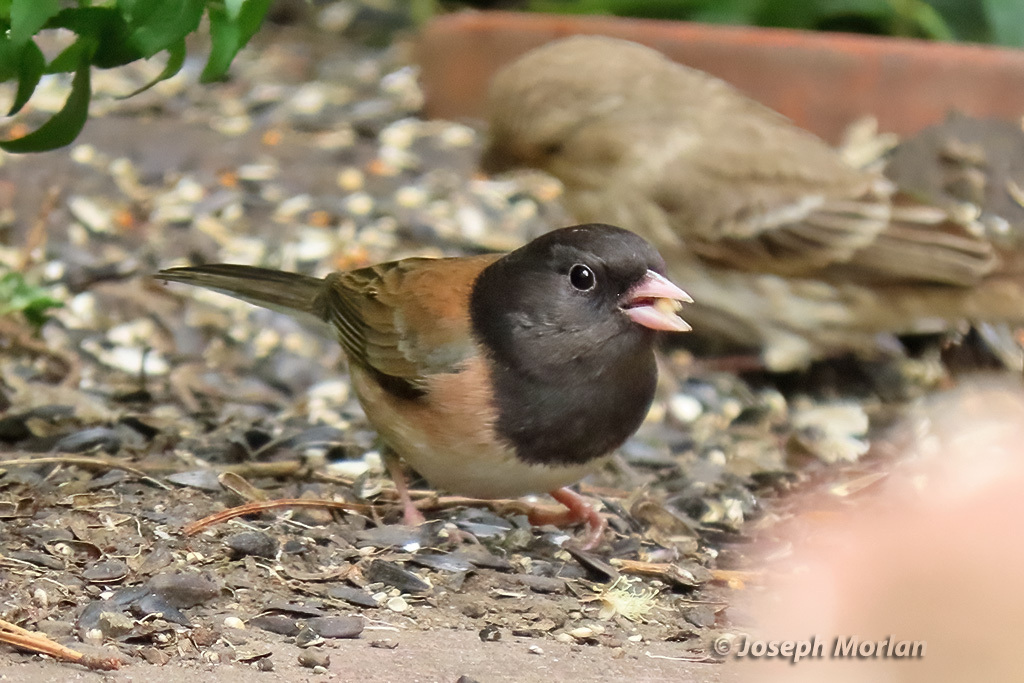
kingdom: Animalia
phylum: Chordata
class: Aves
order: Passeriformes
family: Passerellidae
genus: Junco
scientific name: Junco hyemalis
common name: Dark-eyed junco
